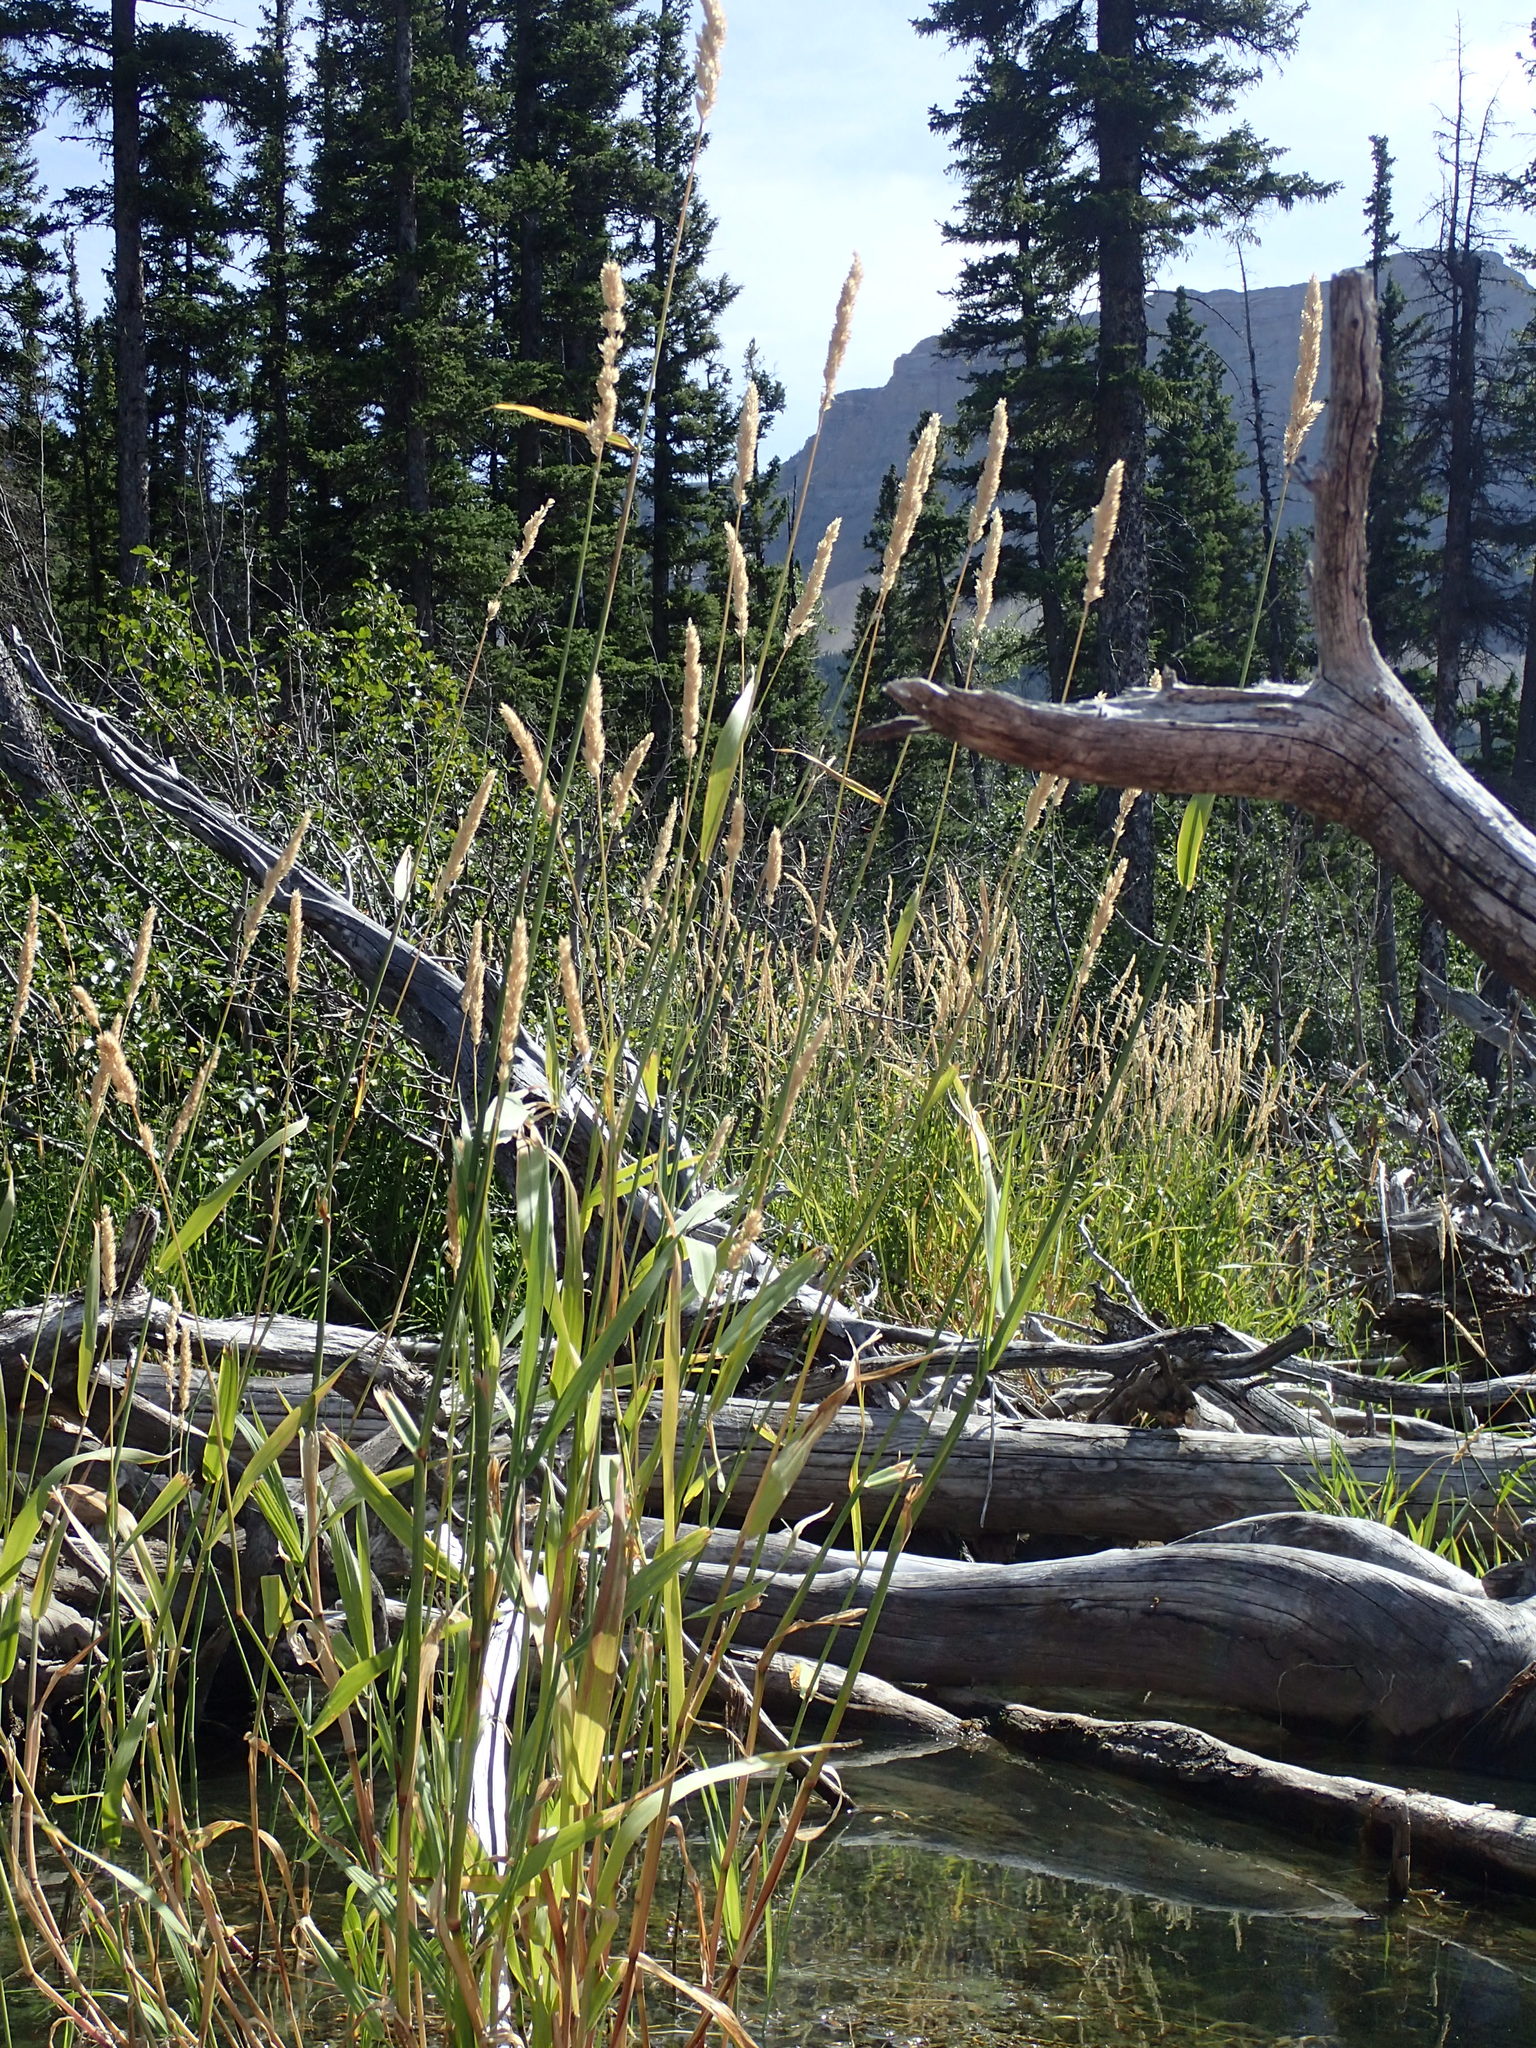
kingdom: Plantae
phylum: Tracheophyta
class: Liliopsida
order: Poales
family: Poaceae
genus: Phalaris
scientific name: Phalaris arundinacea
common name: Reed canary-grass
